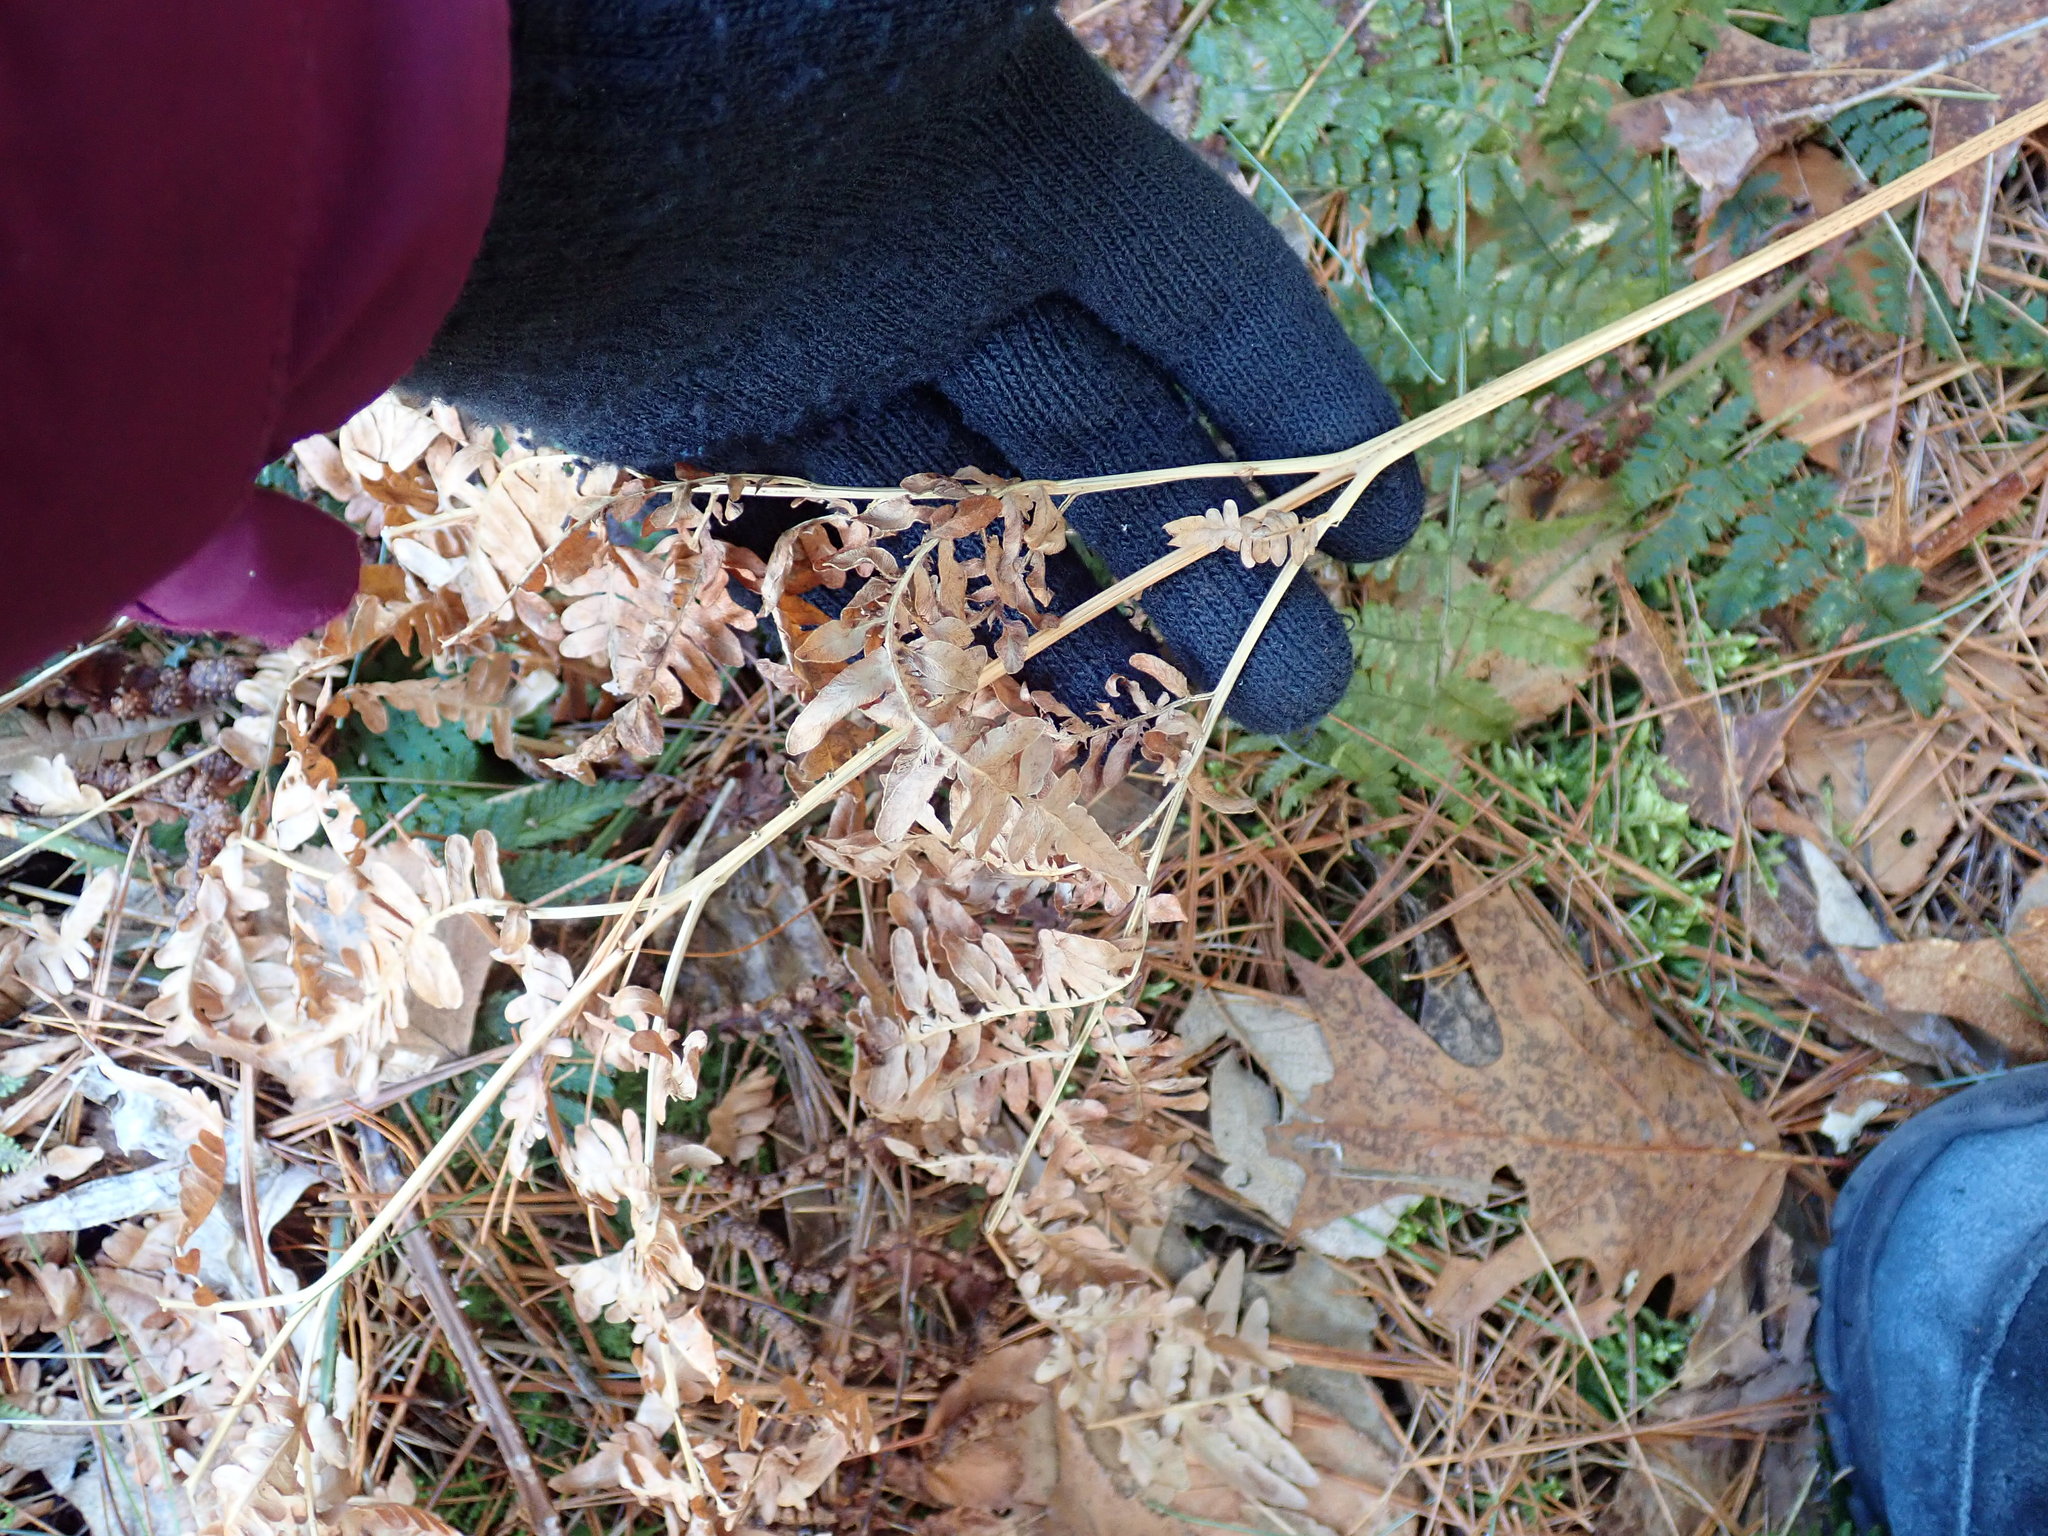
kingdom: Plantae
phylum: Tracheophyta
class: Polypodiopsida
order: Polypodiales
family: Dennstaedtiaceae
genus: Pteridium
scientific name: Pteridium aquilinum
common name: Bracken
